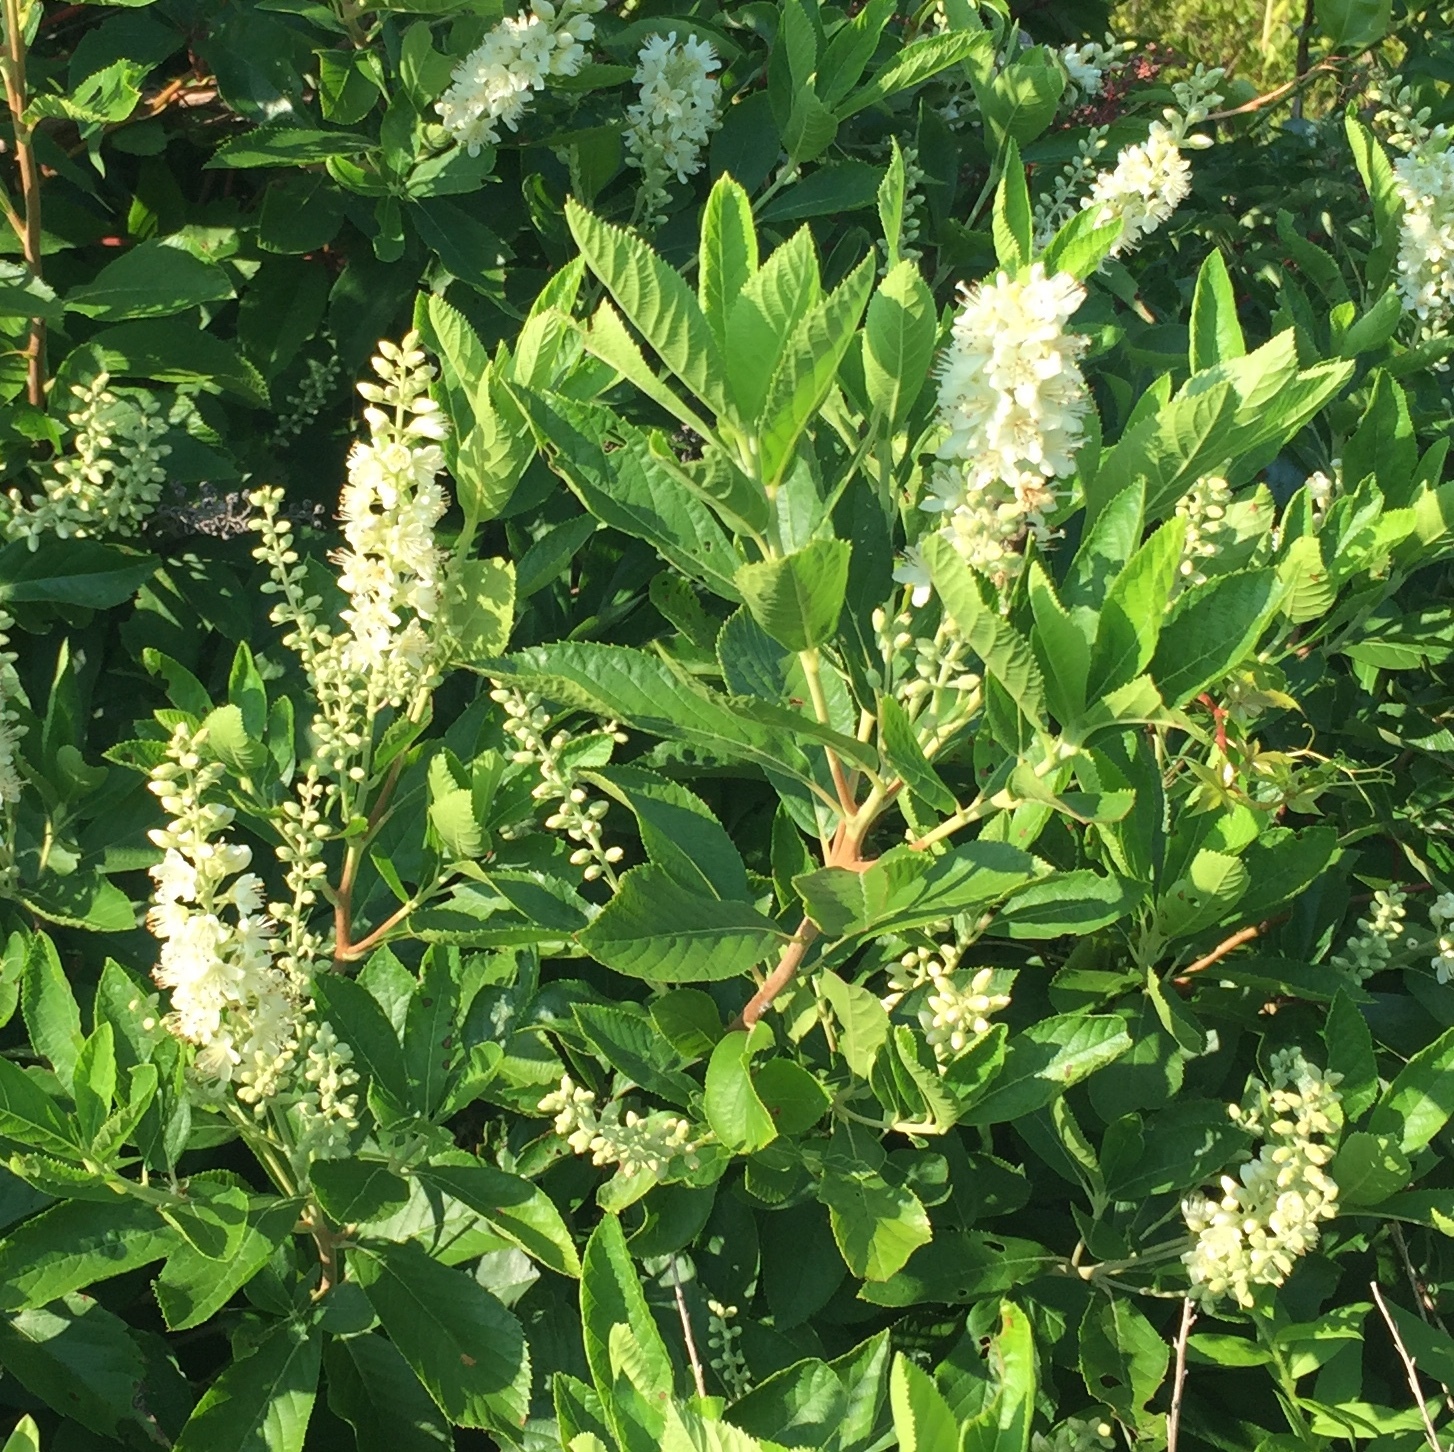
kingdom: Plantae
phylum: Tracheophyta
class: Magnoliopsida
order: Ericales
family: Clethraceae
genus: Clethra
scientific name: Clethra alnifolia
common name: Sweet pepperbush
